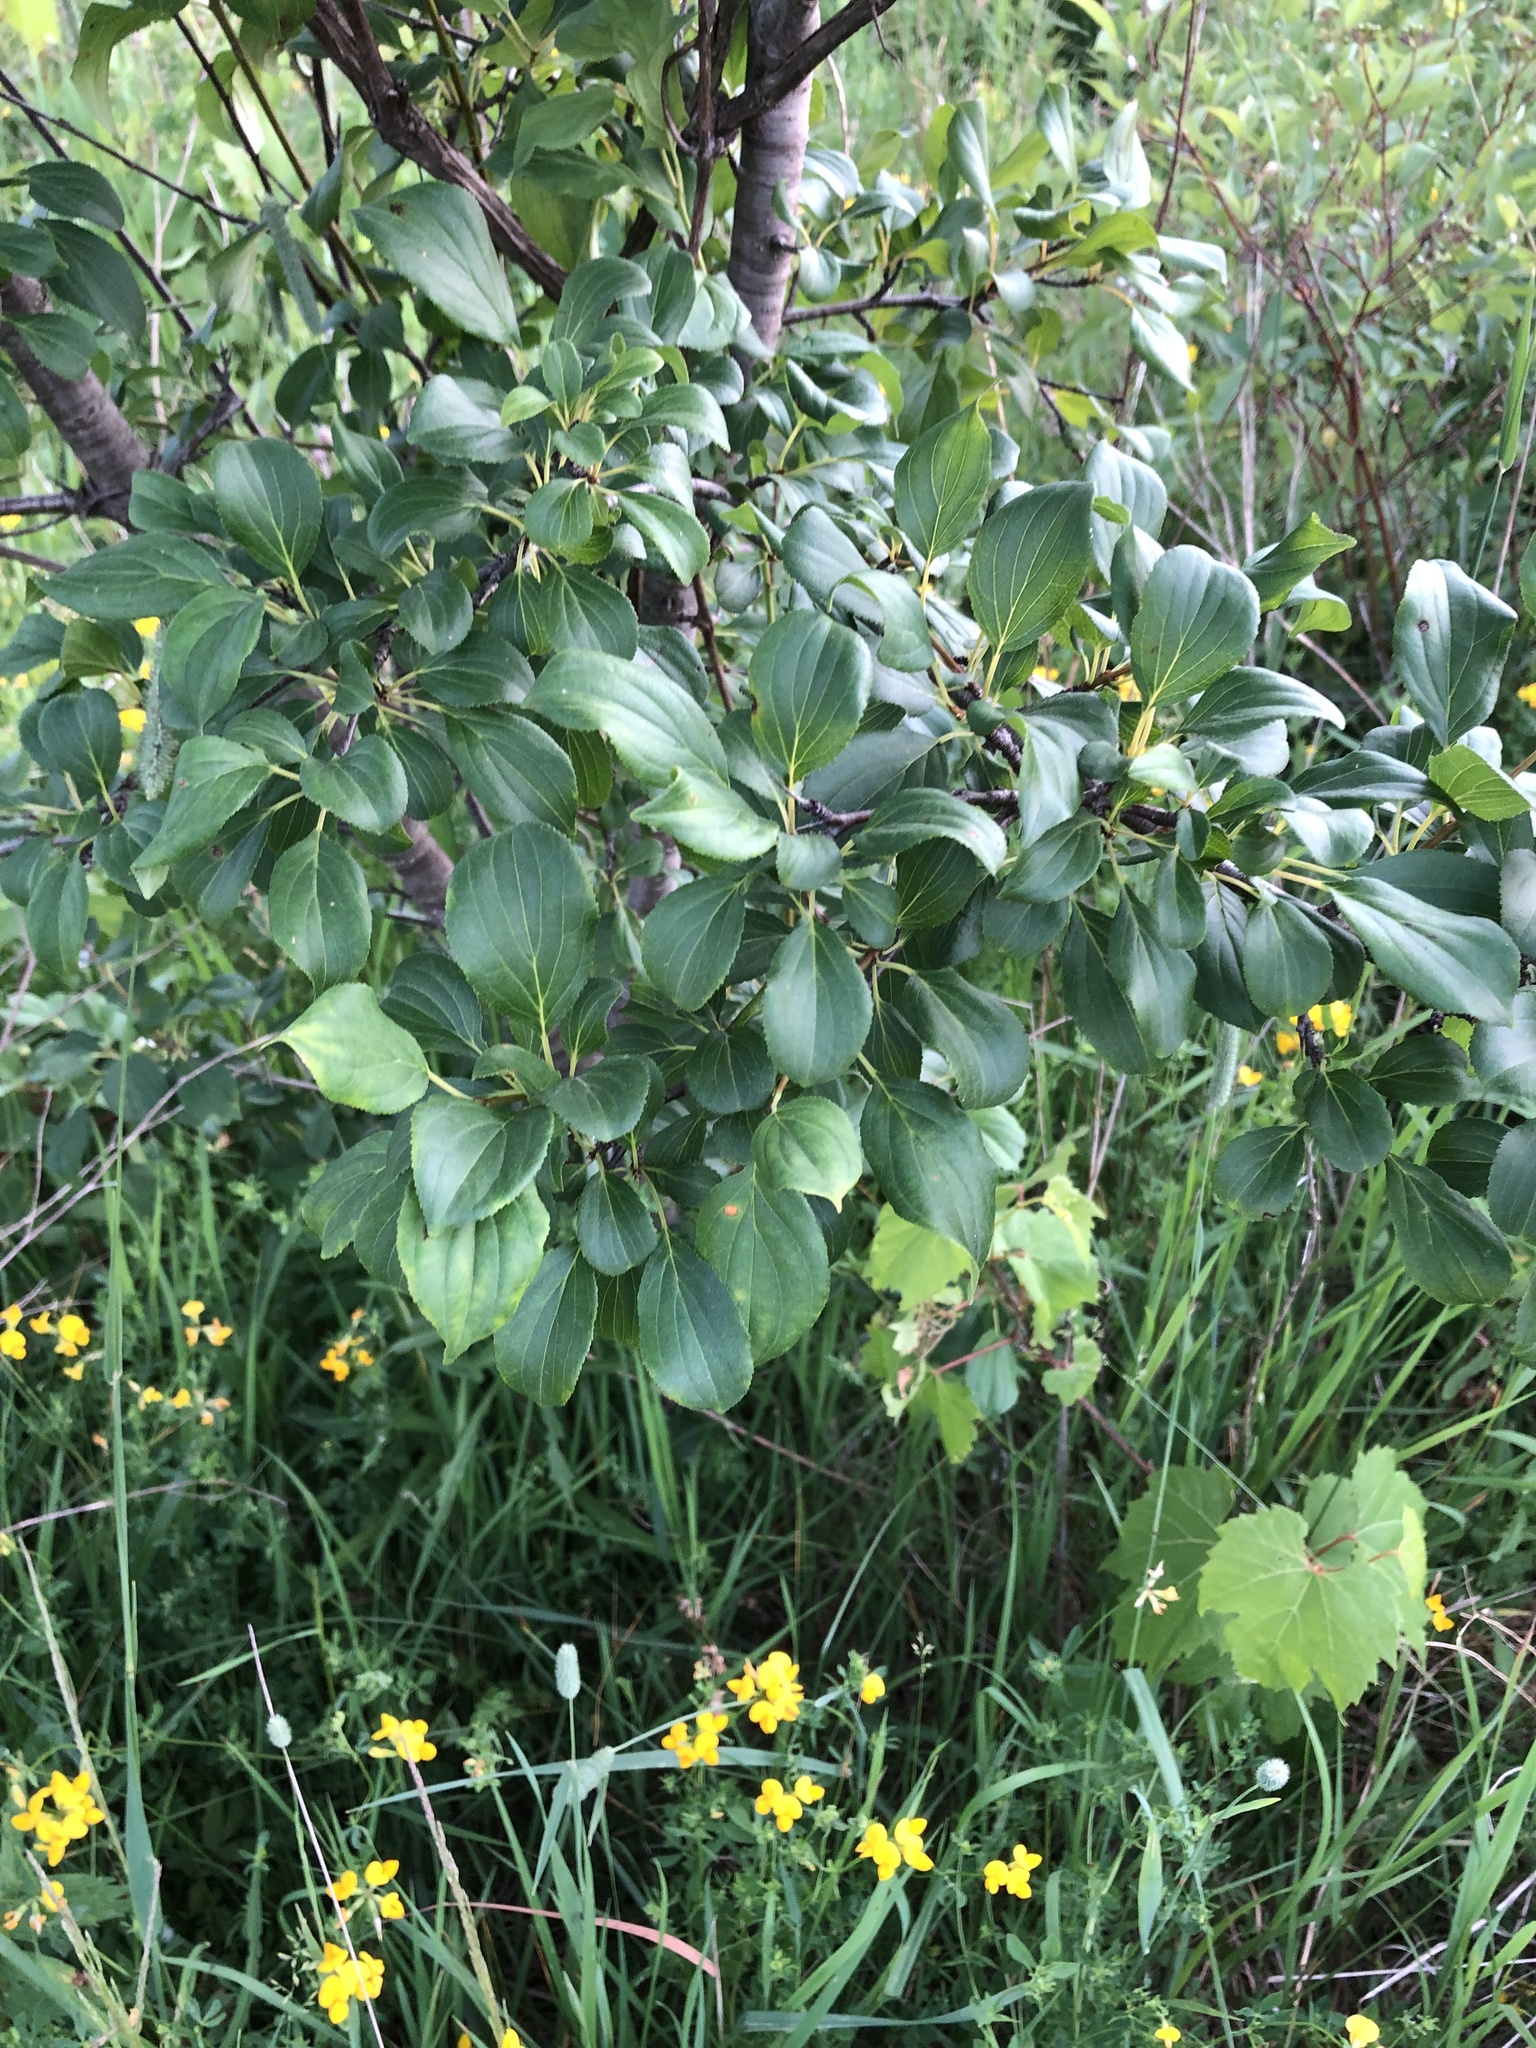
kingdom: Plantae
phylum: Tracheophyta
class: Magnoliopsida
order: Rosales
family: Rhamnaceae
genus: Rhamnus
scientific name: Rhamnus cathartica
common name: Common buckthorn
